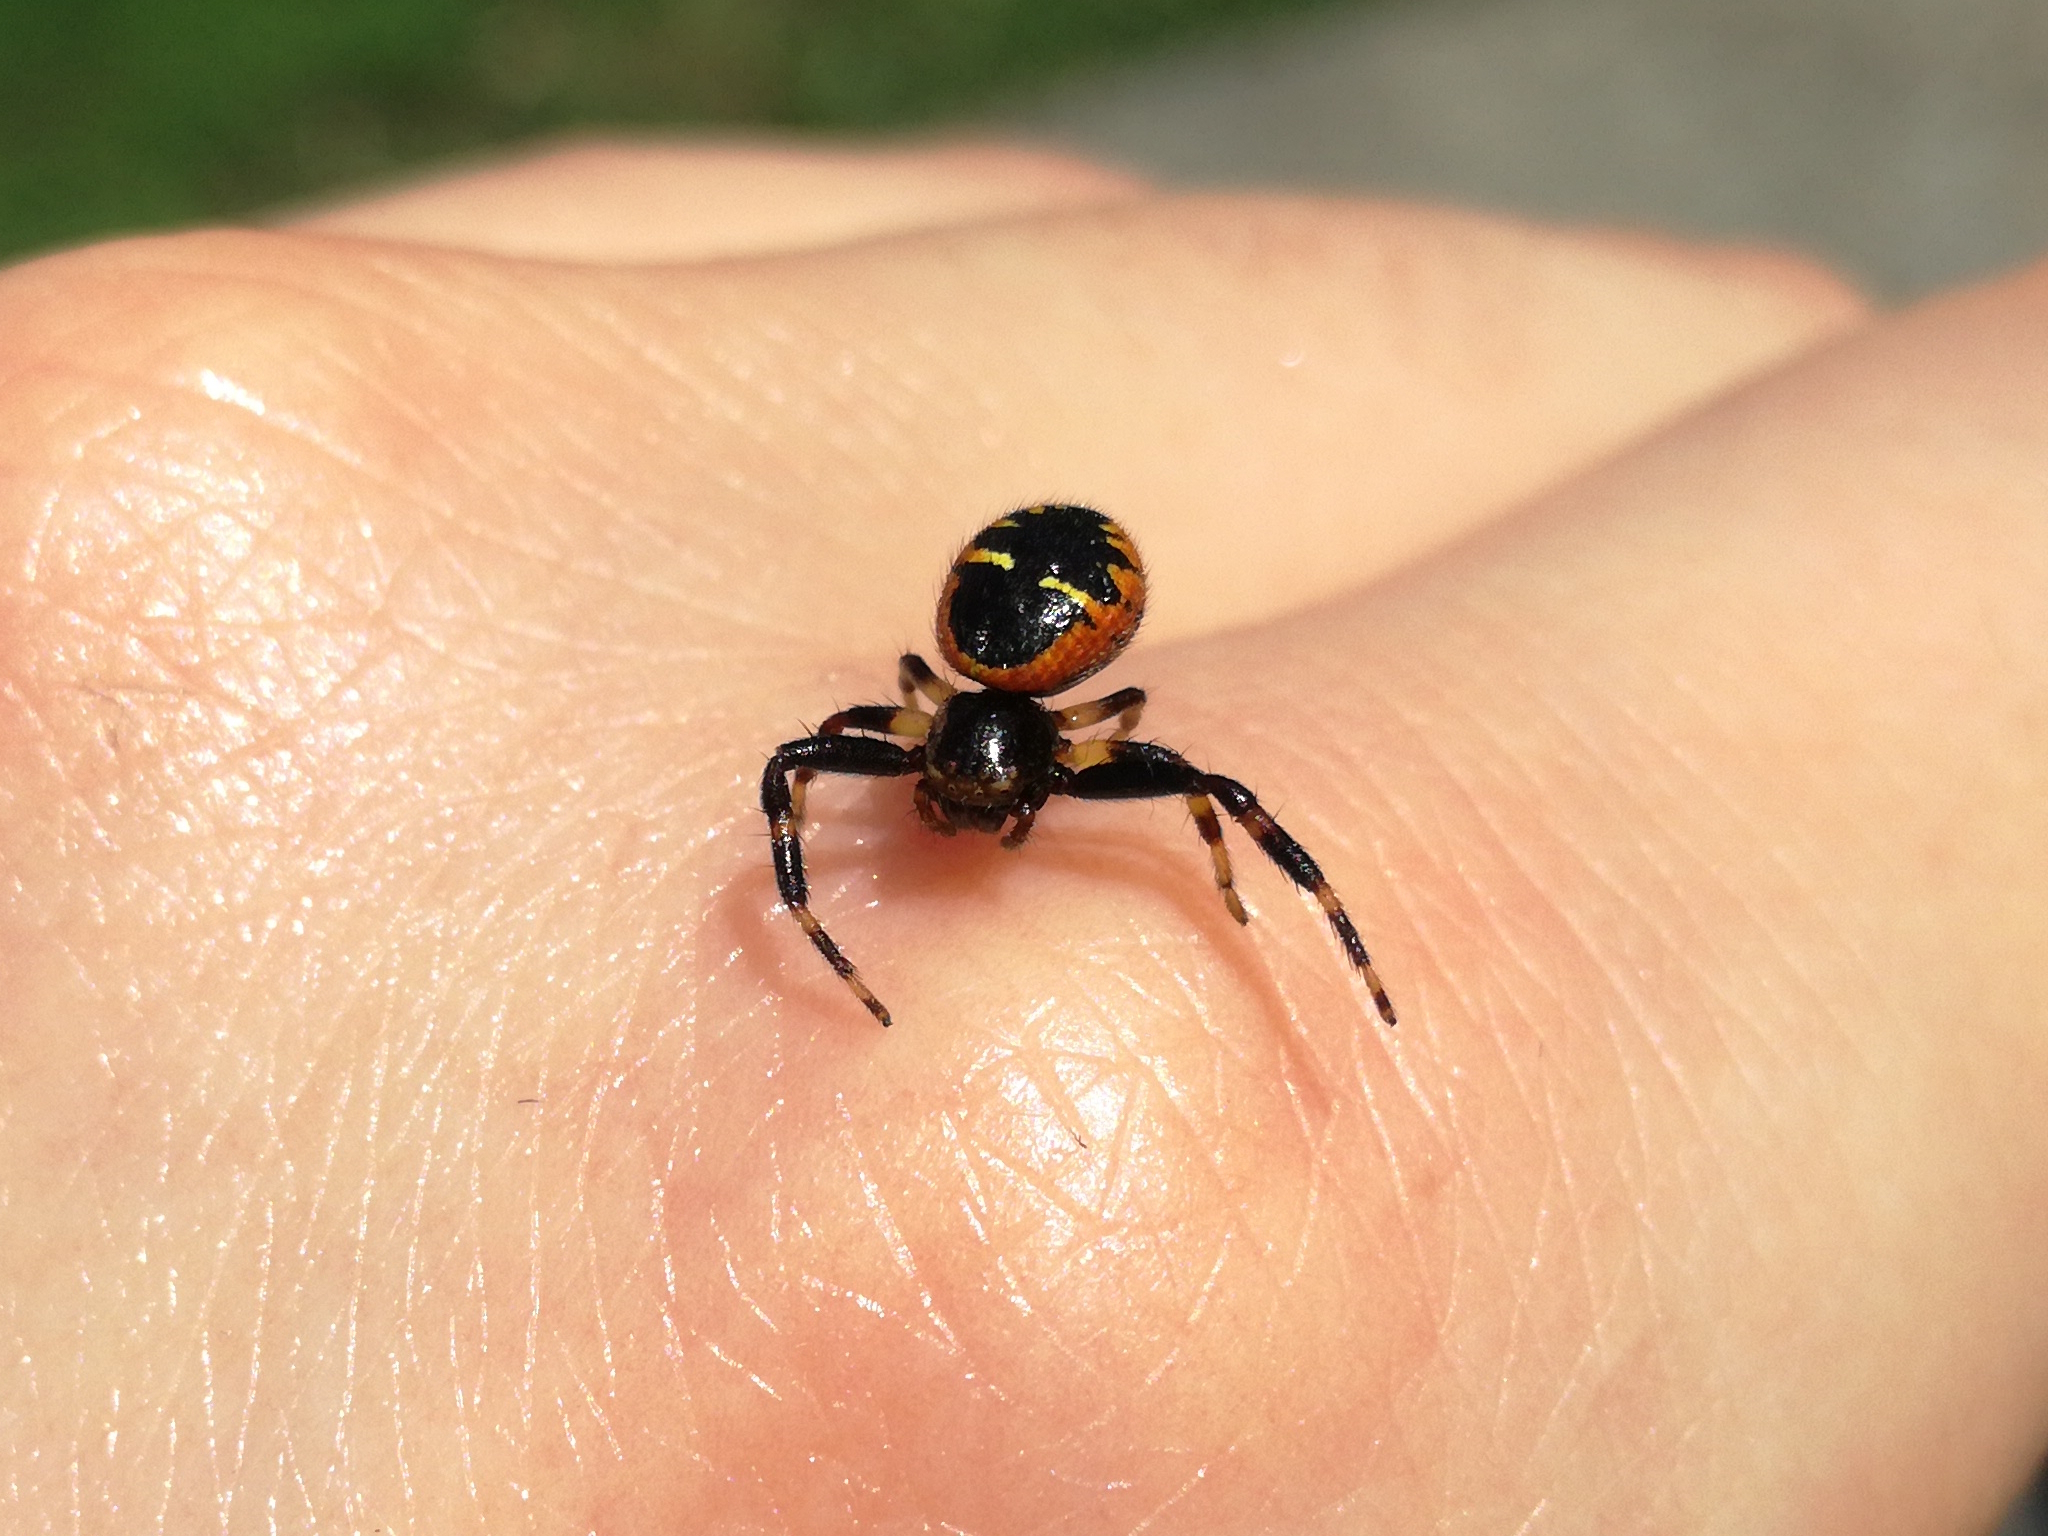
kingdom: Animalia
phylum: Arthropoda
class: Arachnida
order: Araneae
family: Thomisidae
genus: Synema
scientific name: Synema globosum
